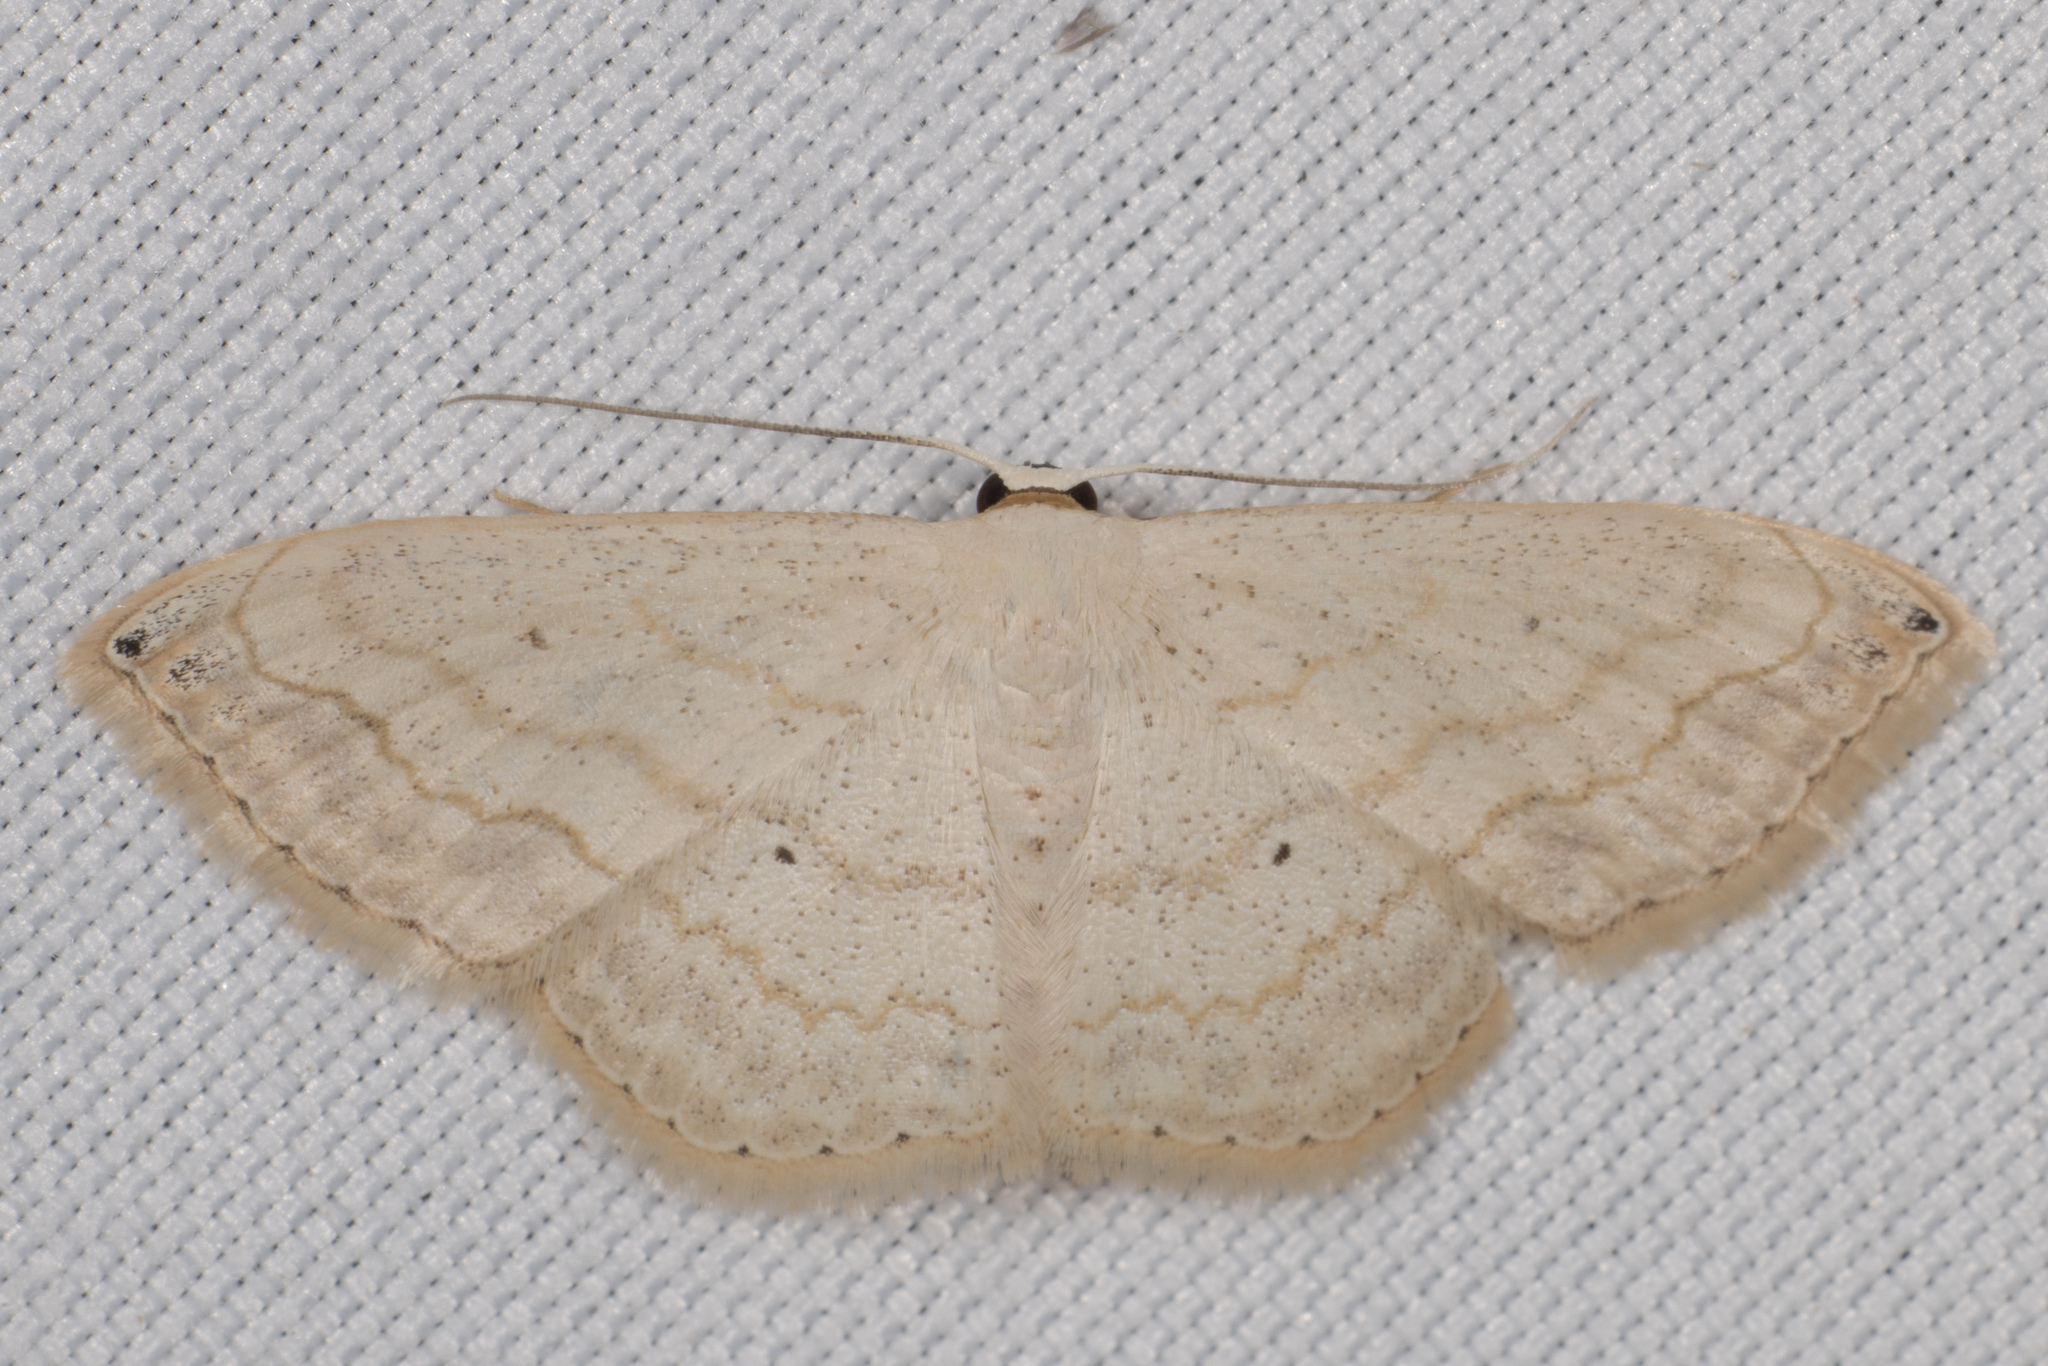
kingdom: Animalia
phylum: Arthropoda
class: Insecta
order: Lepidoptera
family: Geometridae
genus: Scopula
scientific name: Scopula umbilicata
